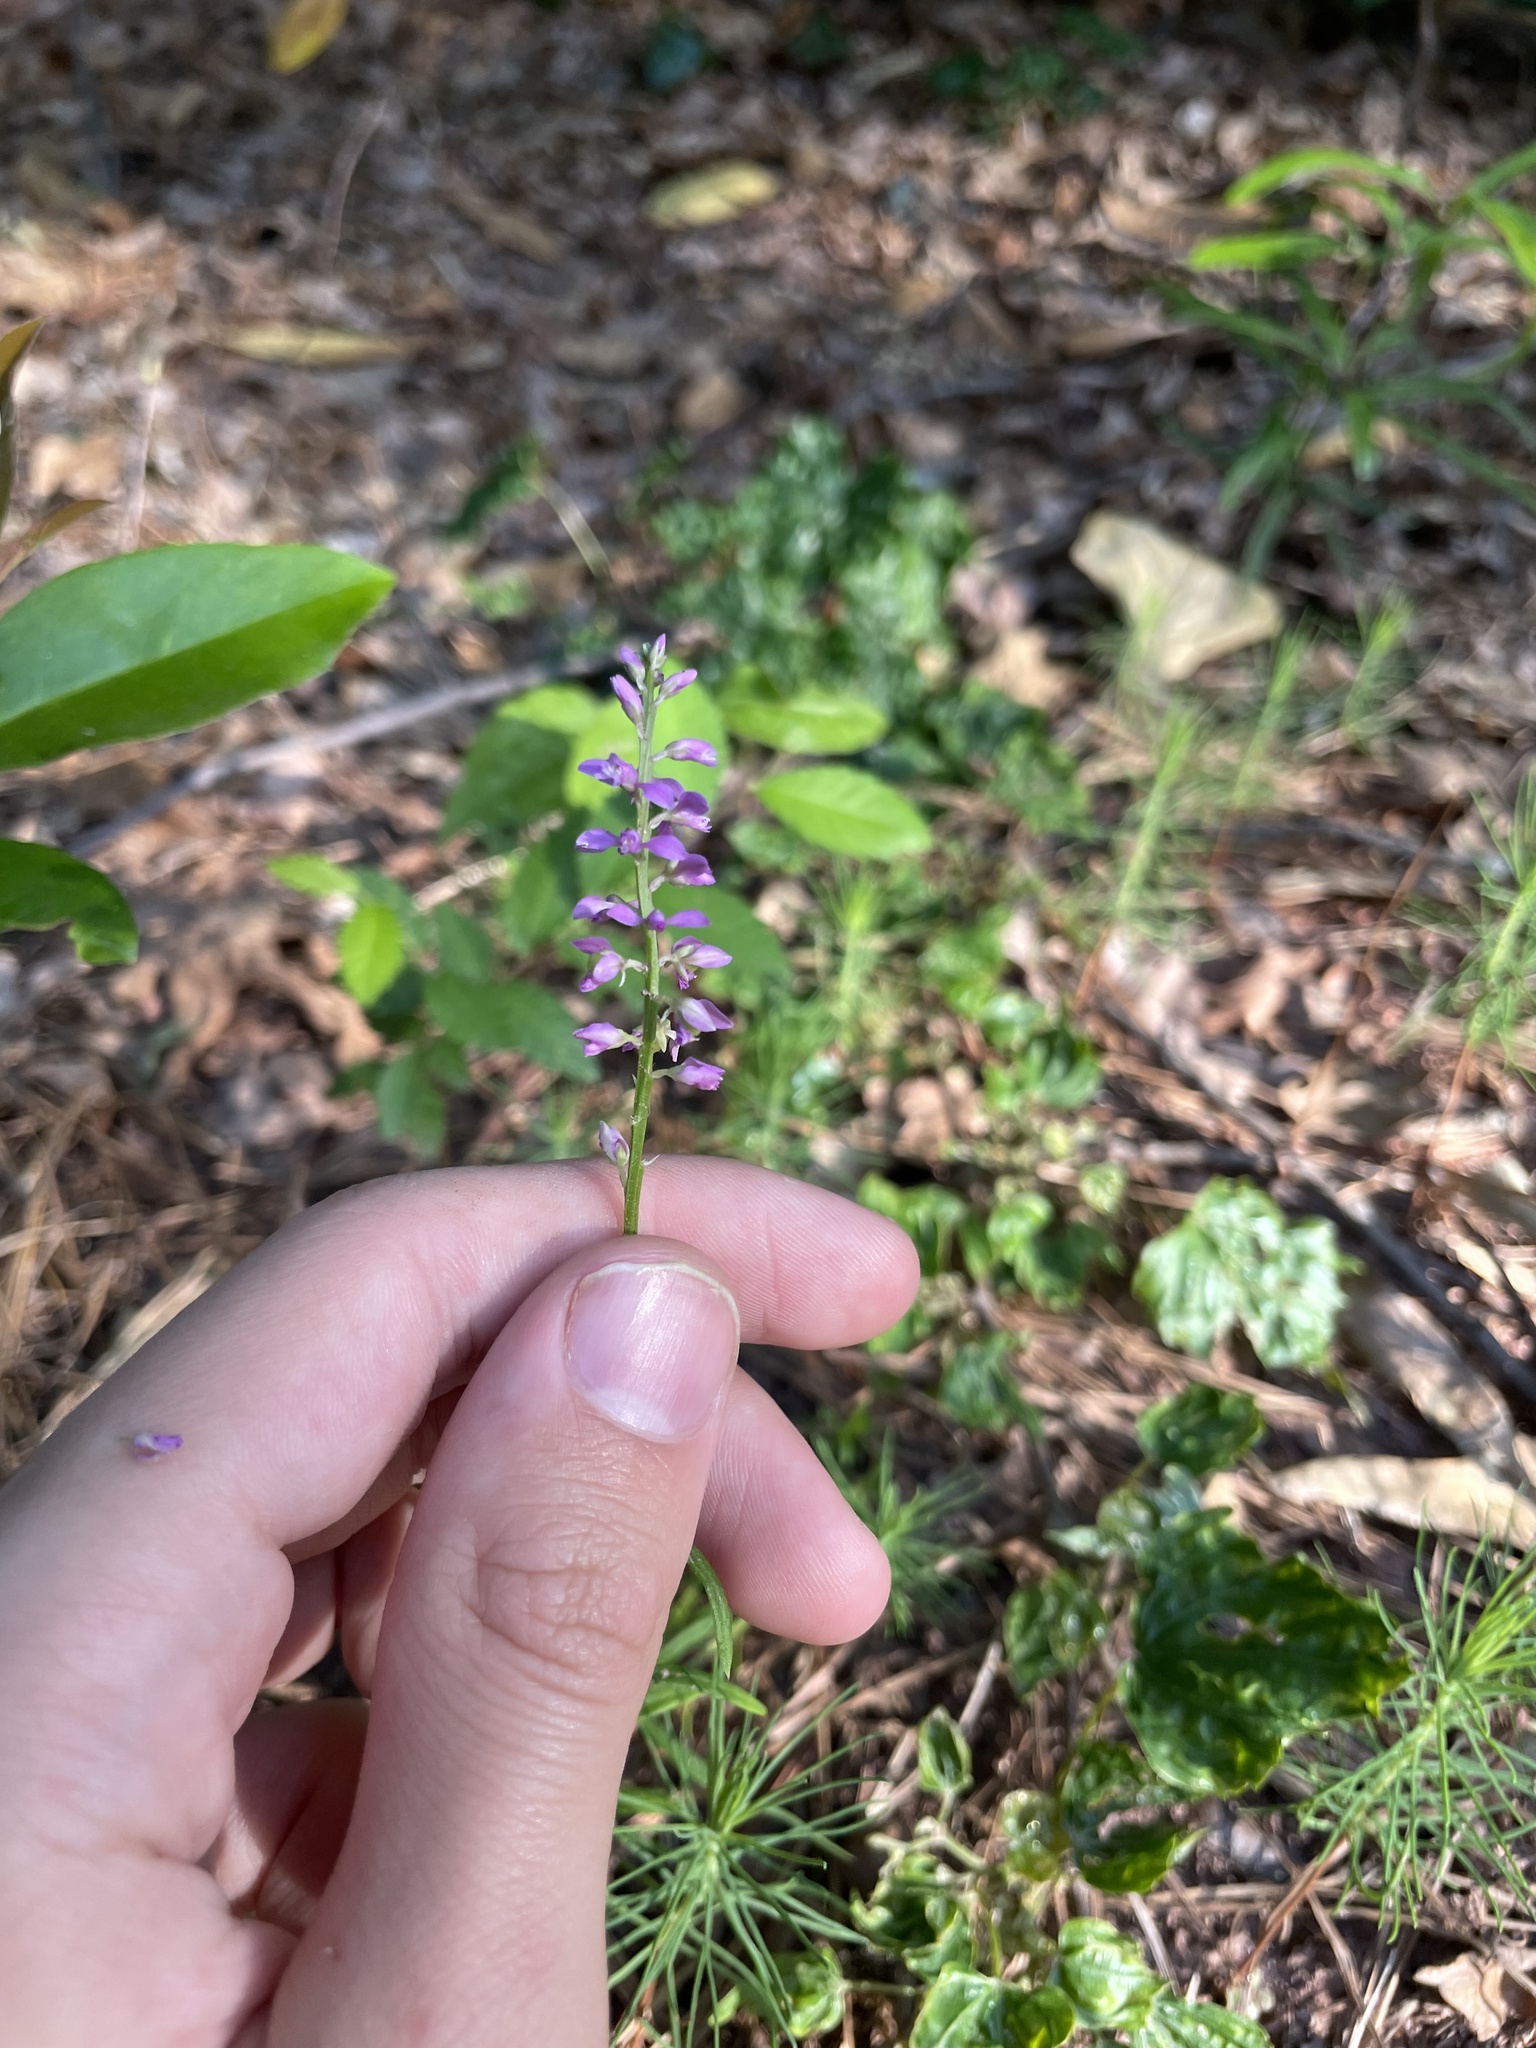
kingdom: Plantae
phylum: Tracheophyta
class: Magnoliopsida
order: Fabales
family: Polygalaceae
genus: Polygala
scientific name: Polygala polygama
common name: Bitter milkwort
